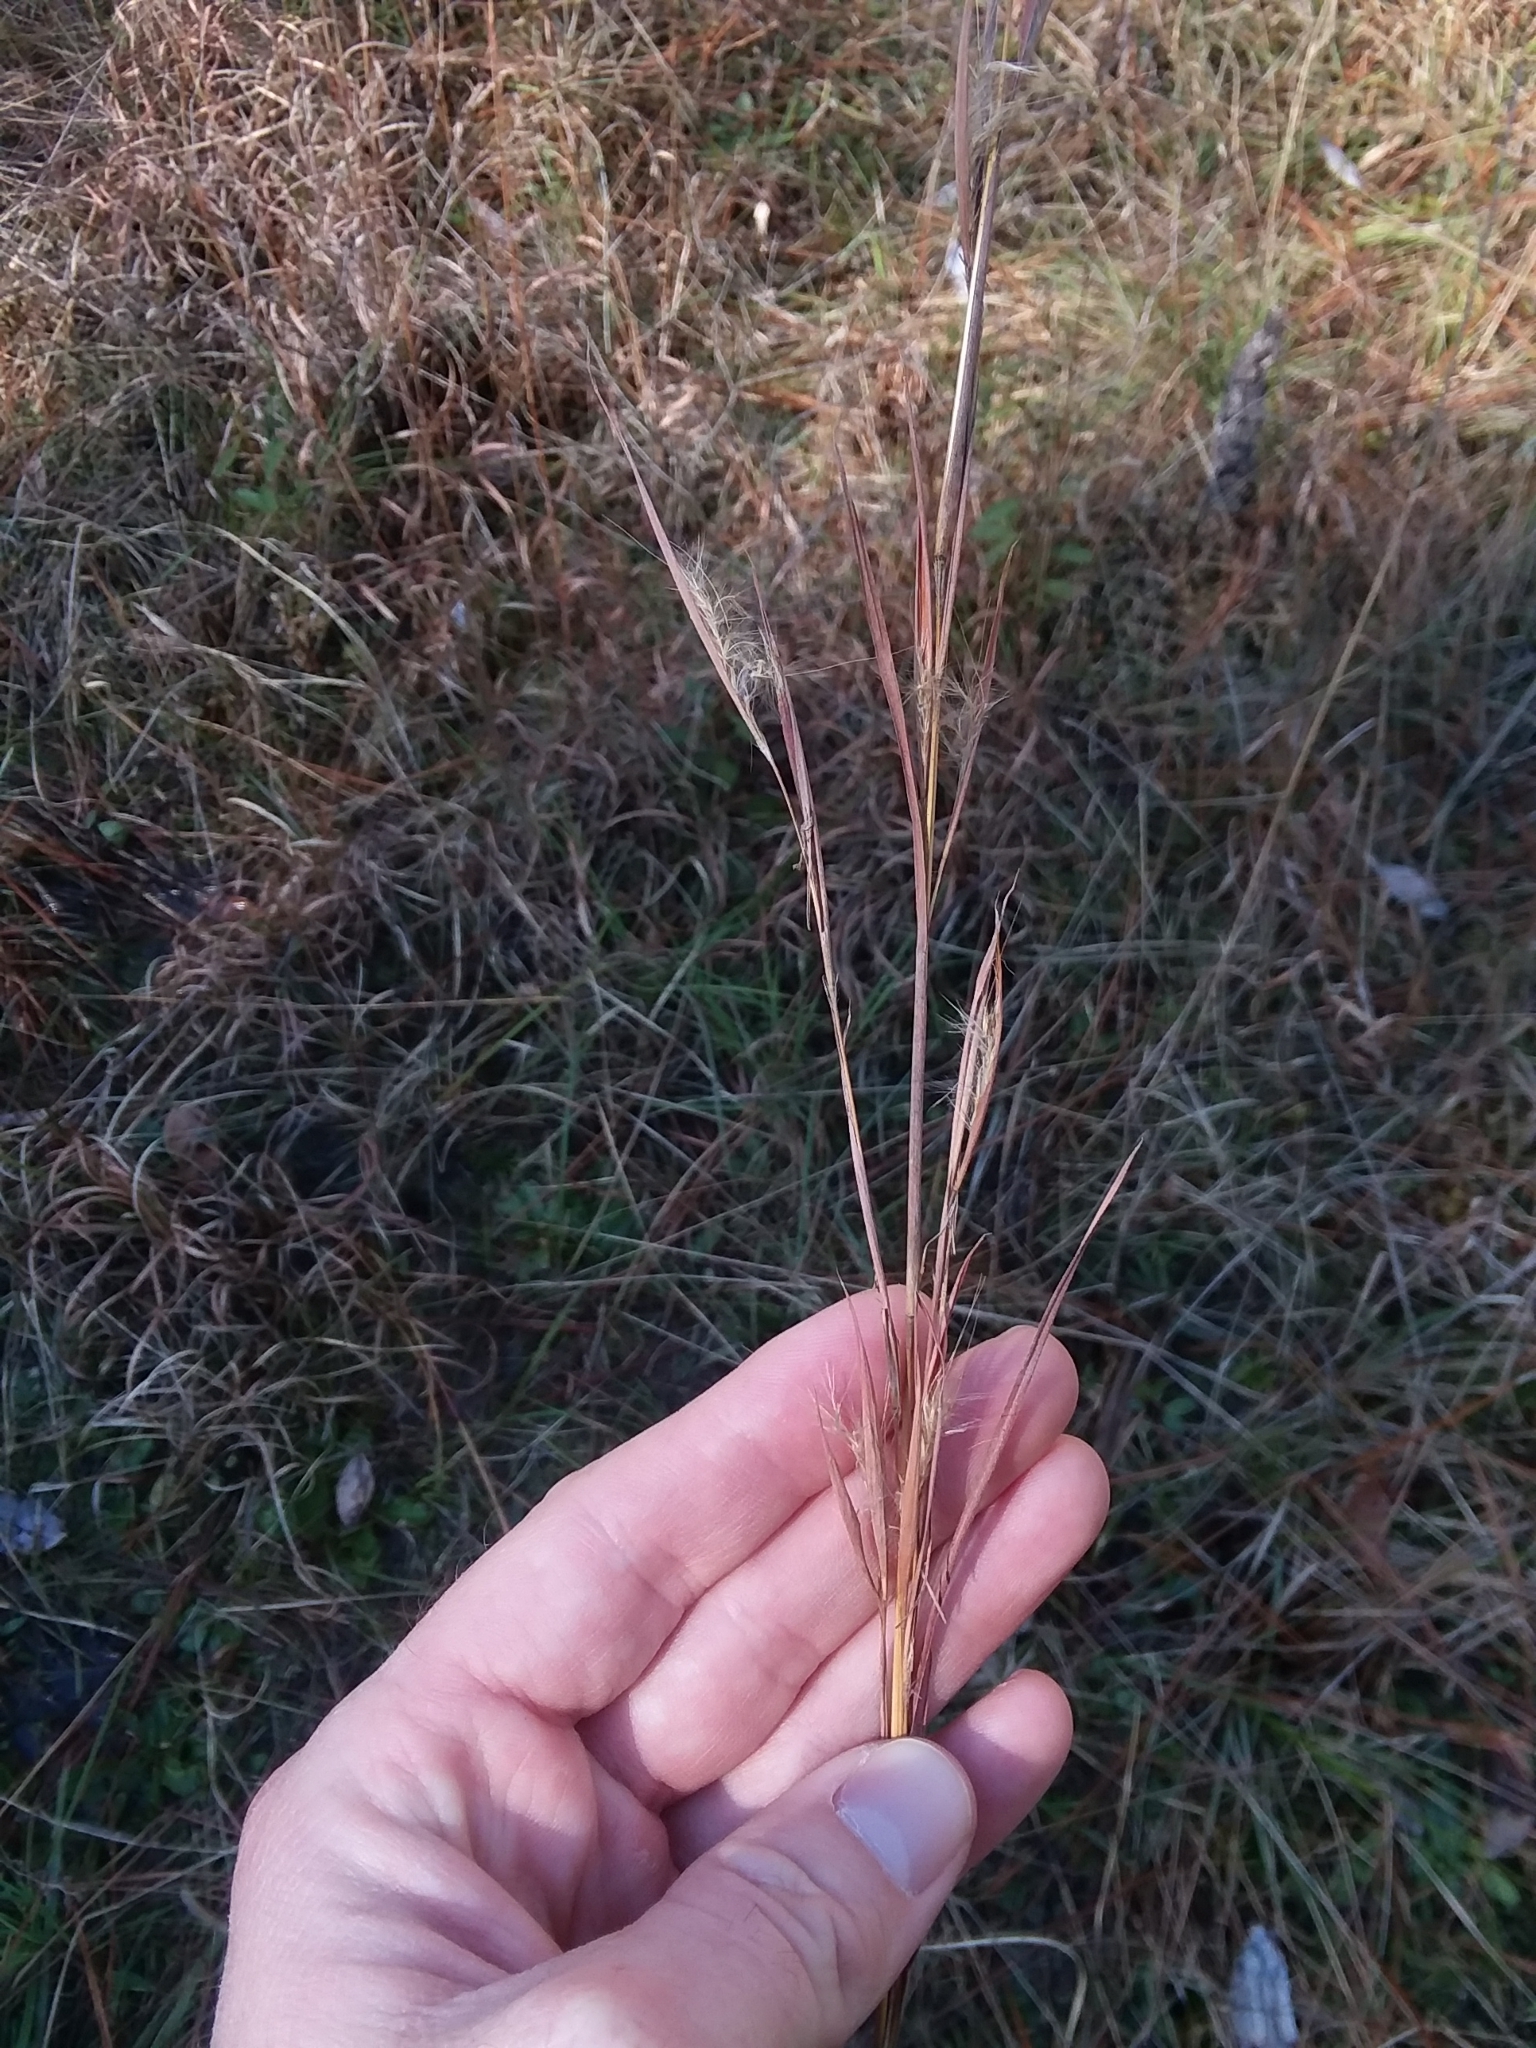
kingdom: Plantae
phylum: Tracheophyta
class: Liliopsida
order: Poales
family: Poaceae
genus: Andropogon
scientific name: Andropogon virginicus
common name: Broomsedge bluestem
